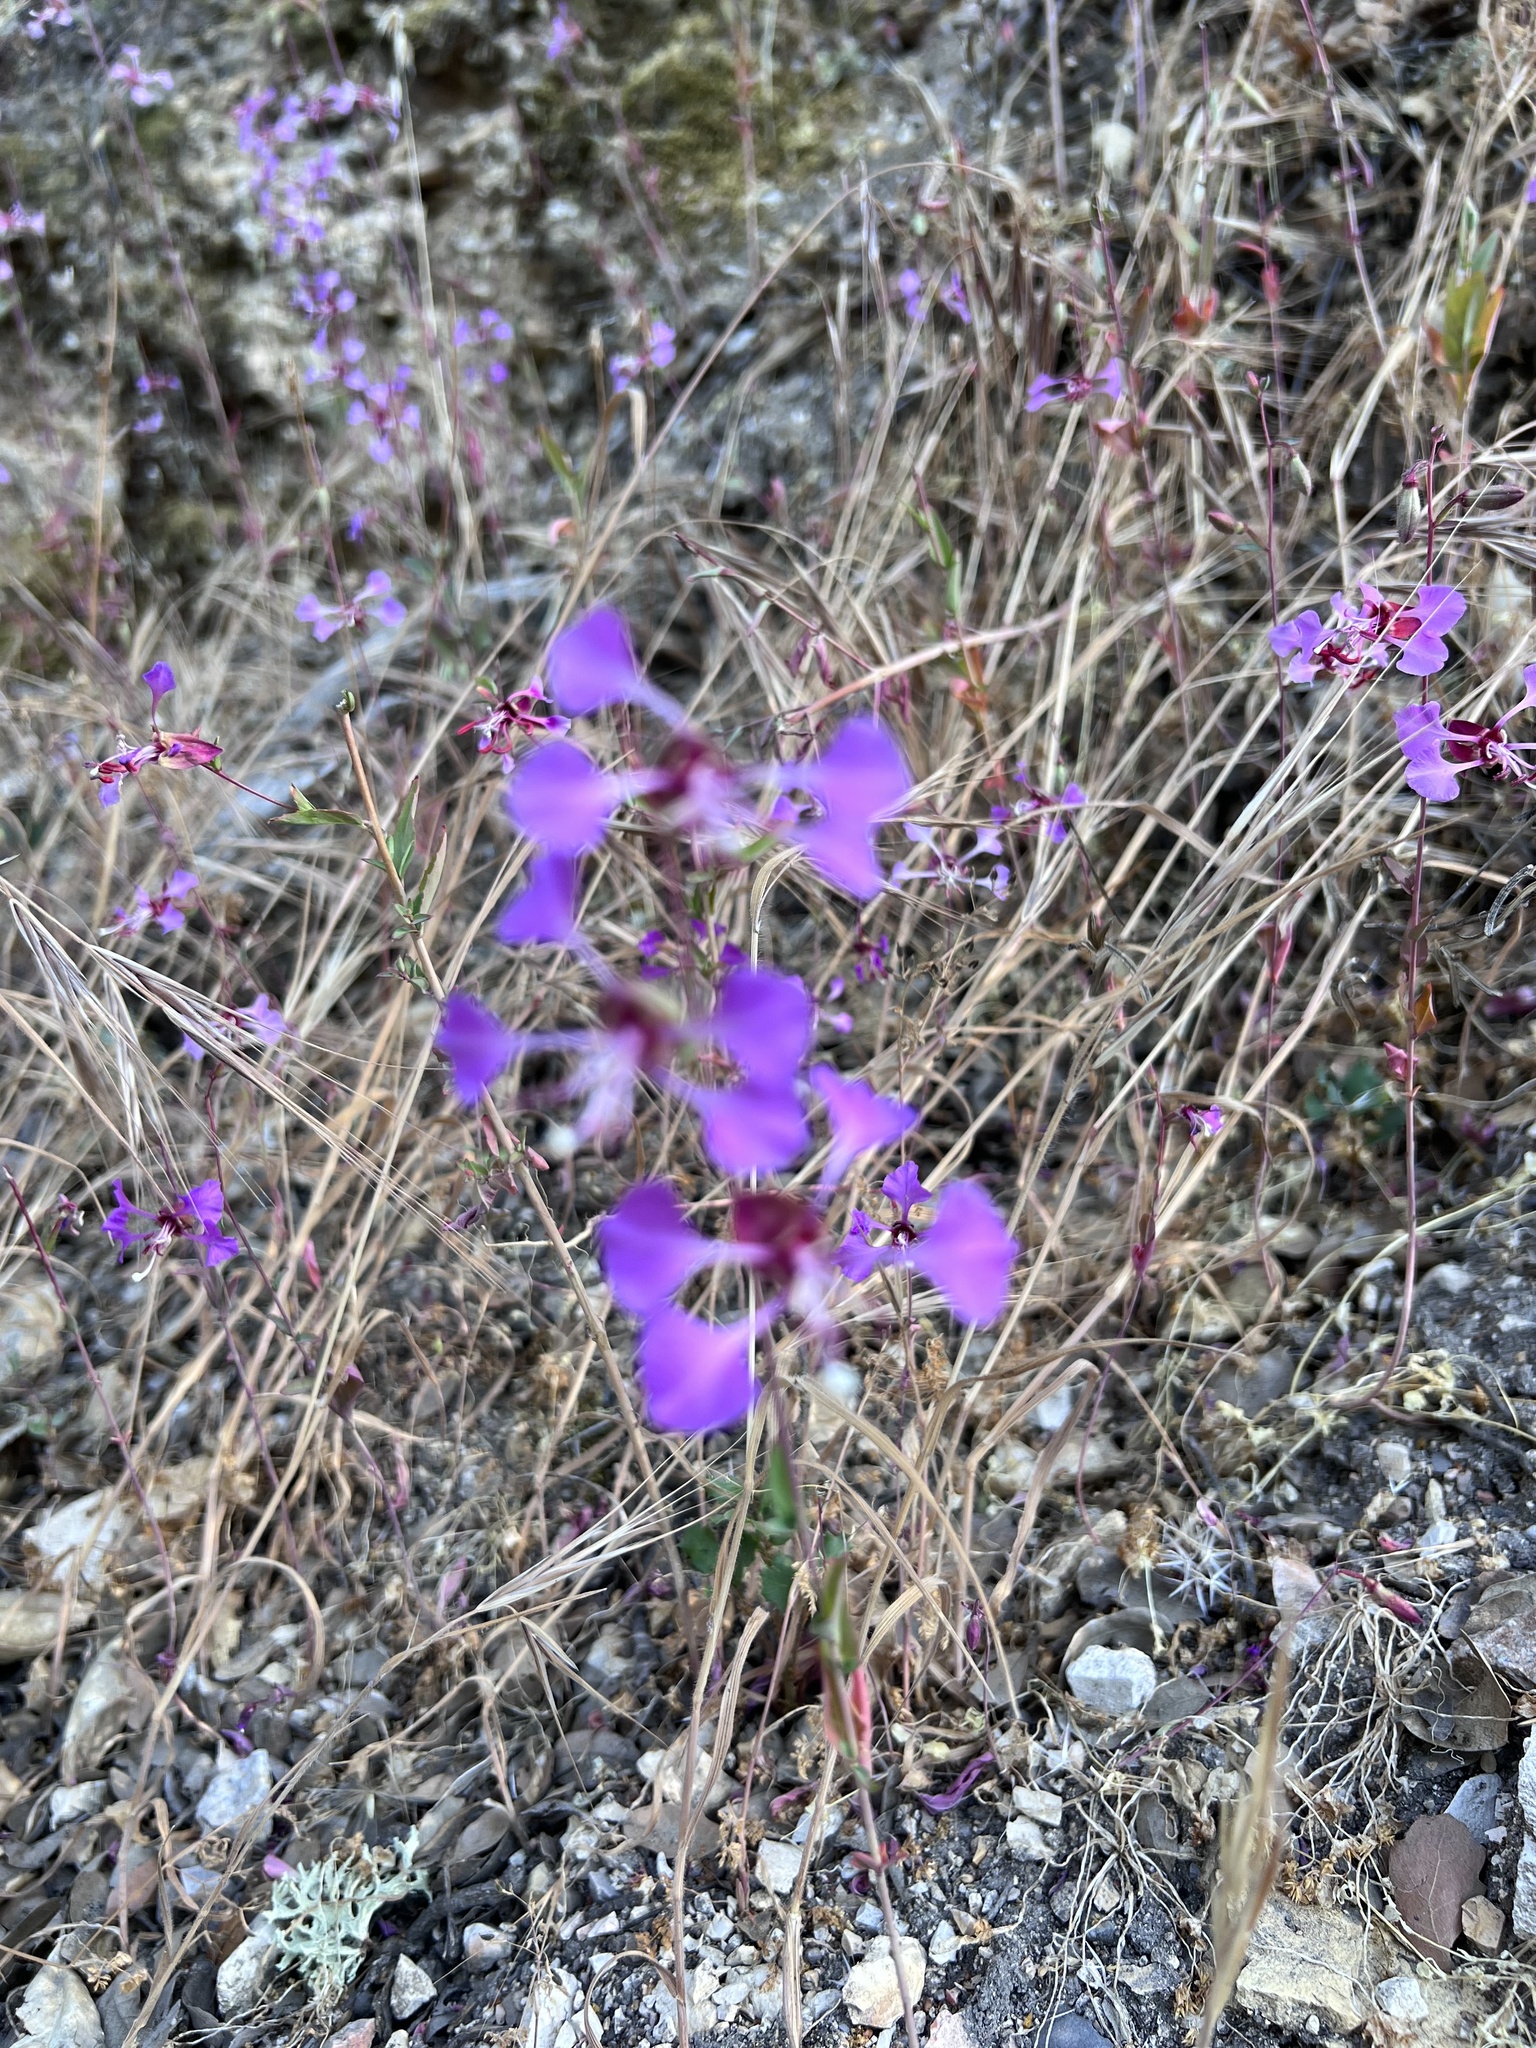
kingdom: Plantae
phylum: Tracheophyta
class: Magnoliopsida
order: Myrtales
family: Onagraceae
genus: Clarkia
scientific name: Clarkia unguiculata
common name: Clarkia
